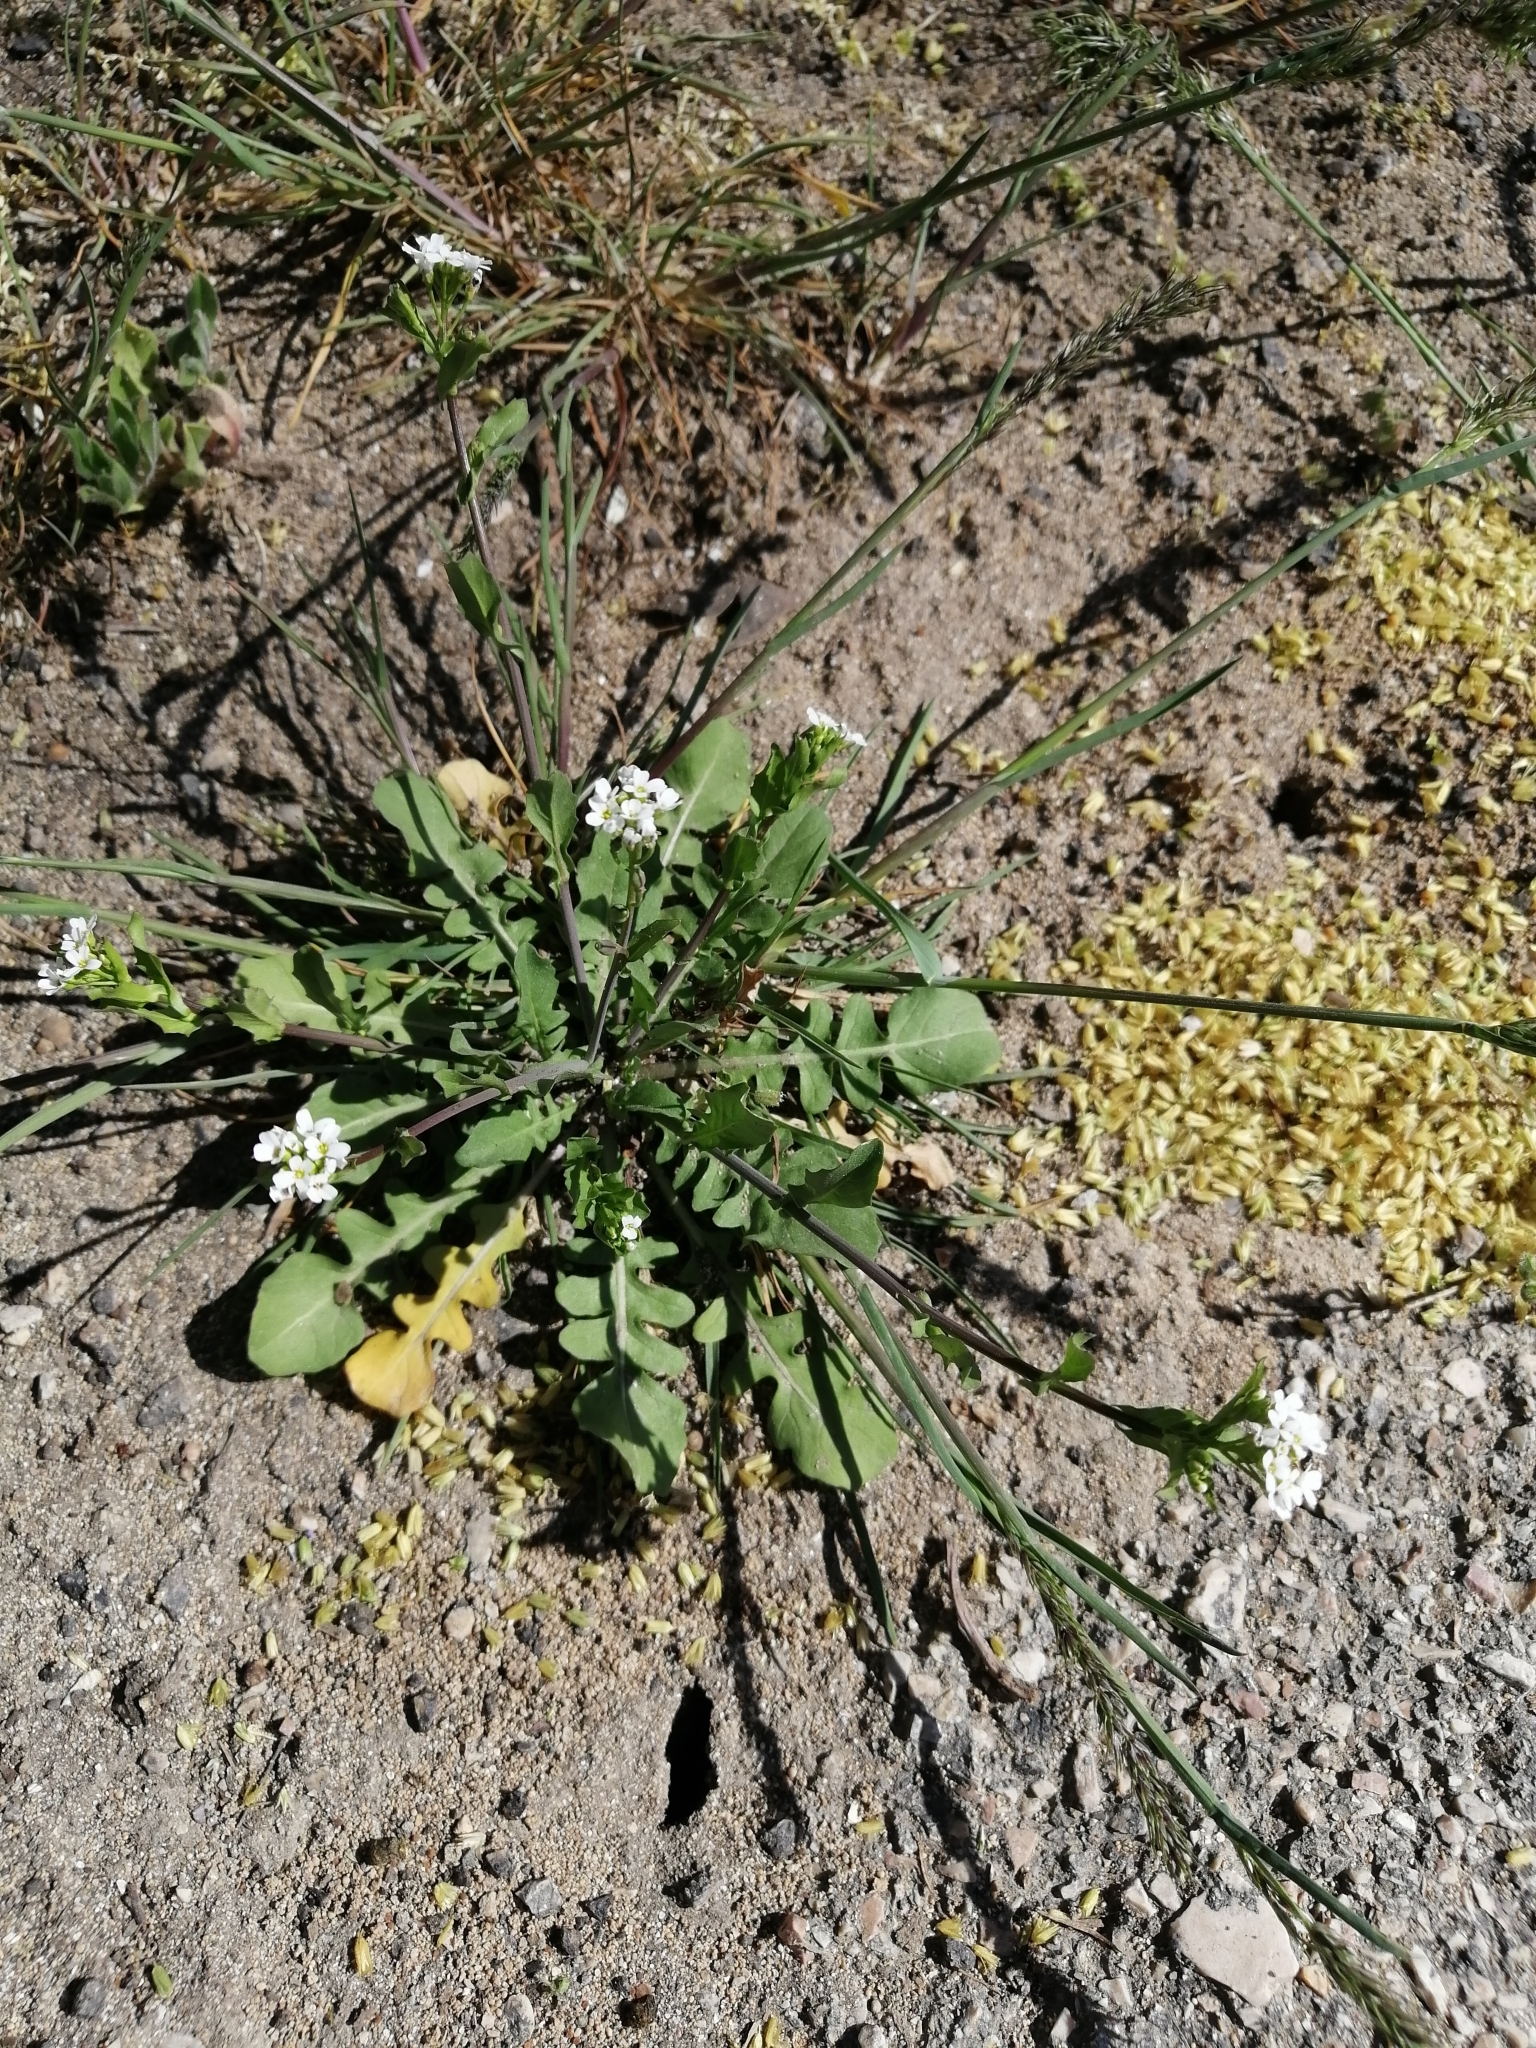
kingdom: Plantae
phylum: Tracheophyta
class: Magnoliopsida
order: Brassicales
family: Brassicaceae
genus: Calepina
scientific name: Calepina irregularis
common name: White ballmustard
